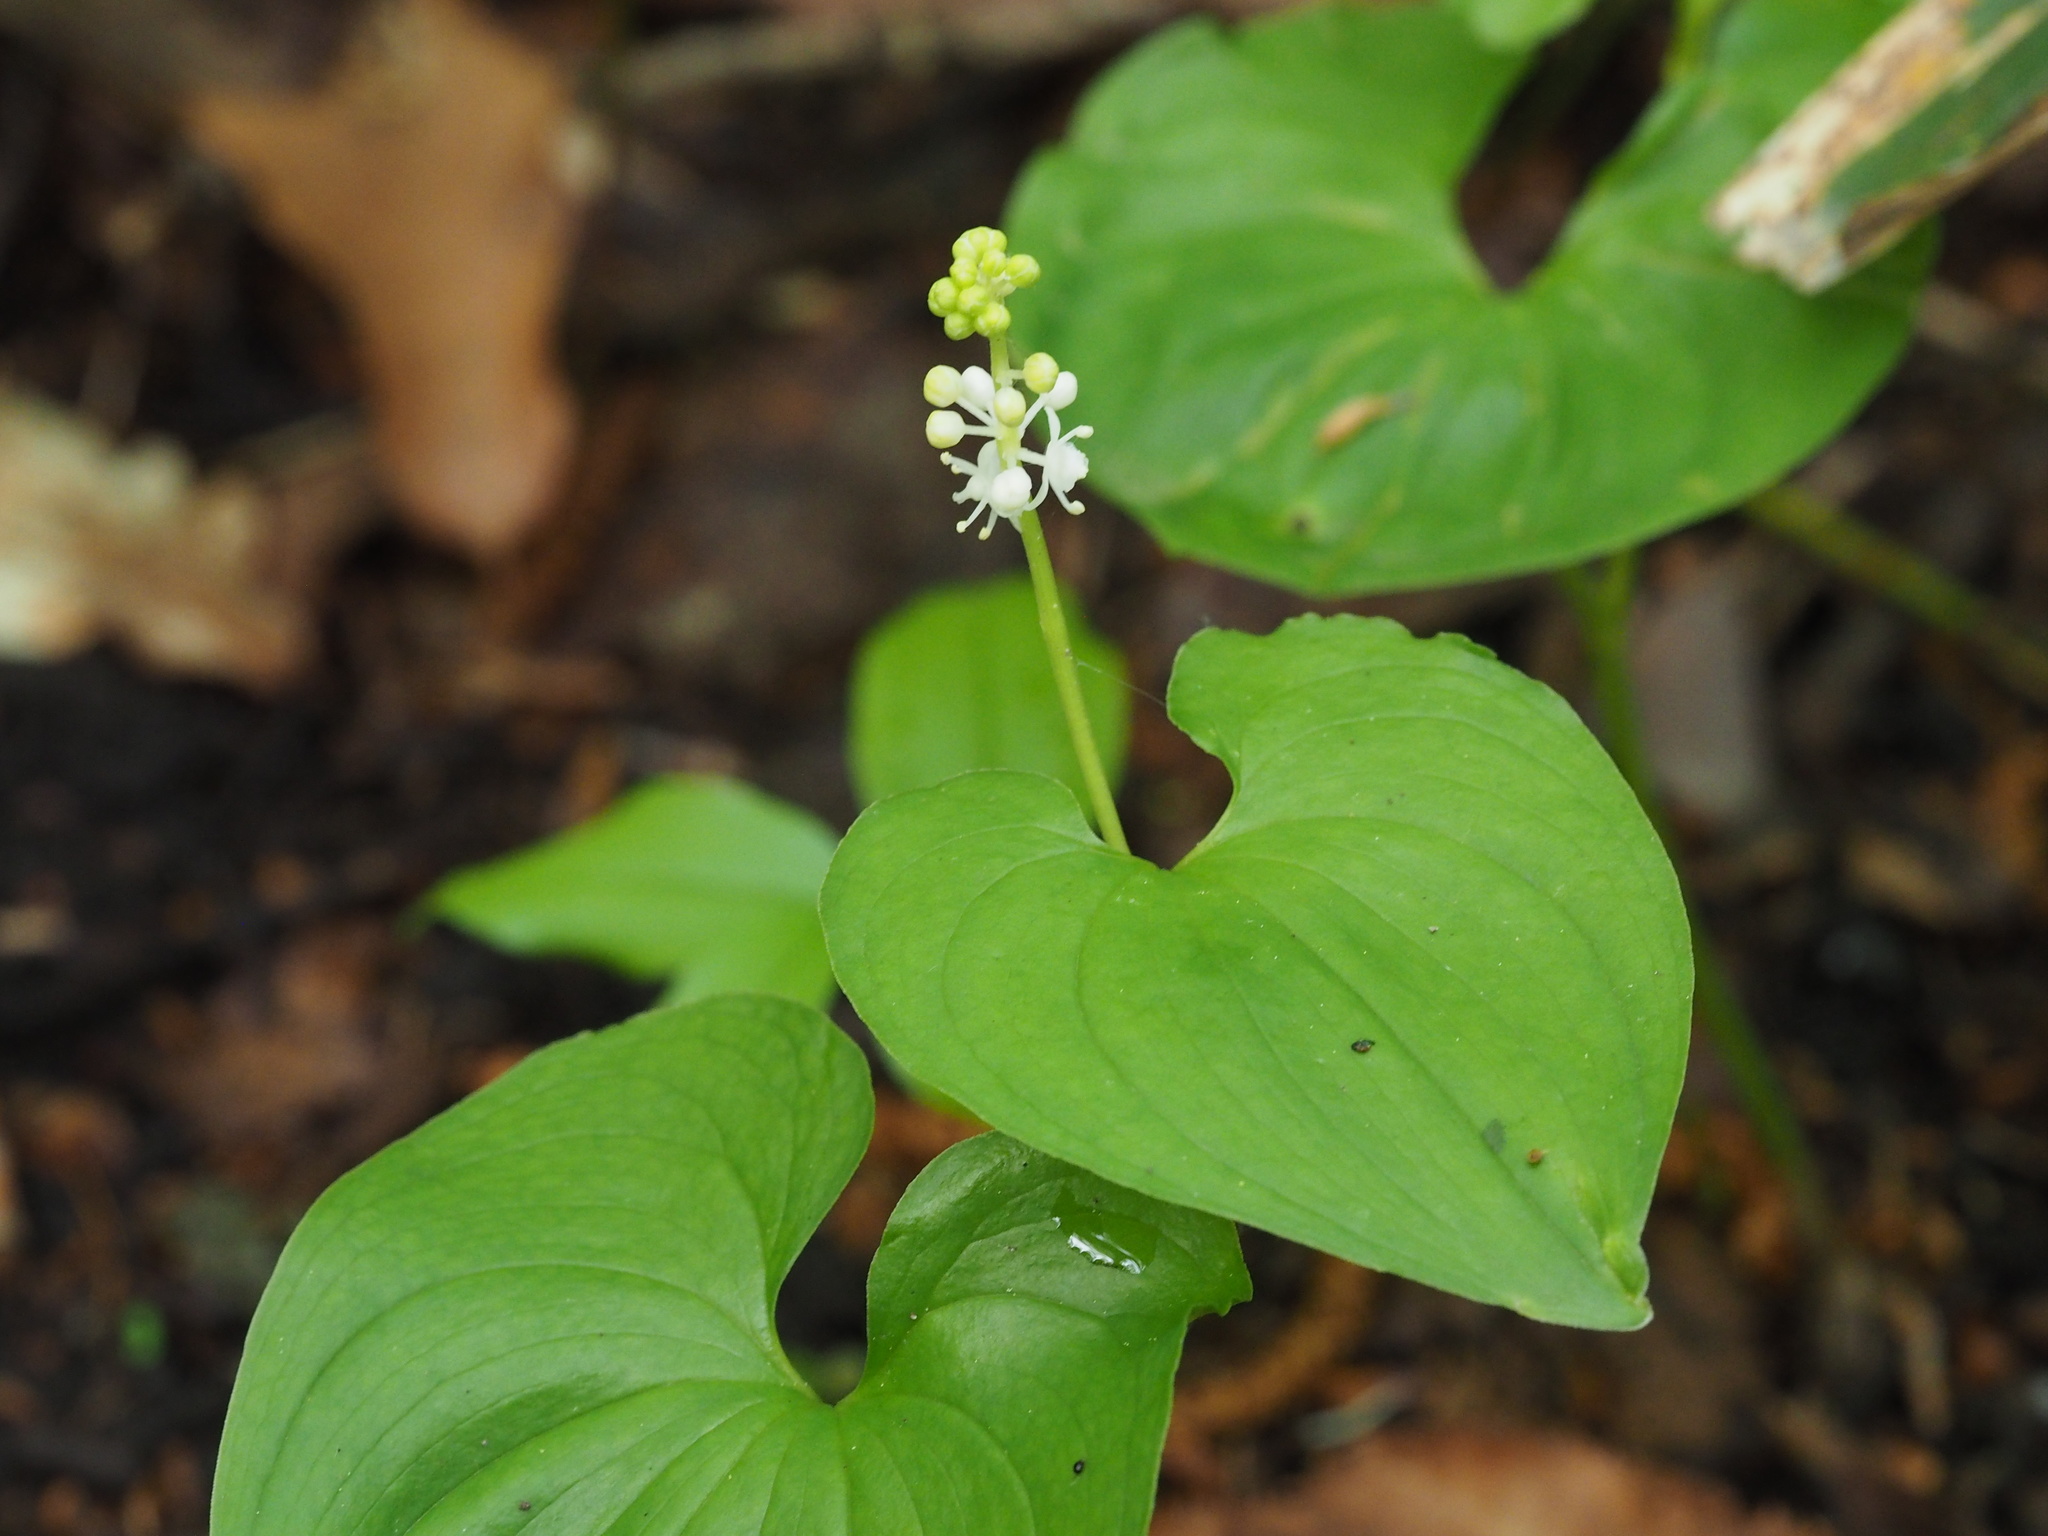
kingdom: Plantae
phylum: Tracheophyta
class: Liliopsida
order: Asparagales
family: Asparagaceae
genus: Maianthemum
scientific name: Maianthemum dilatatum
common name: False lily-of-the-valley
